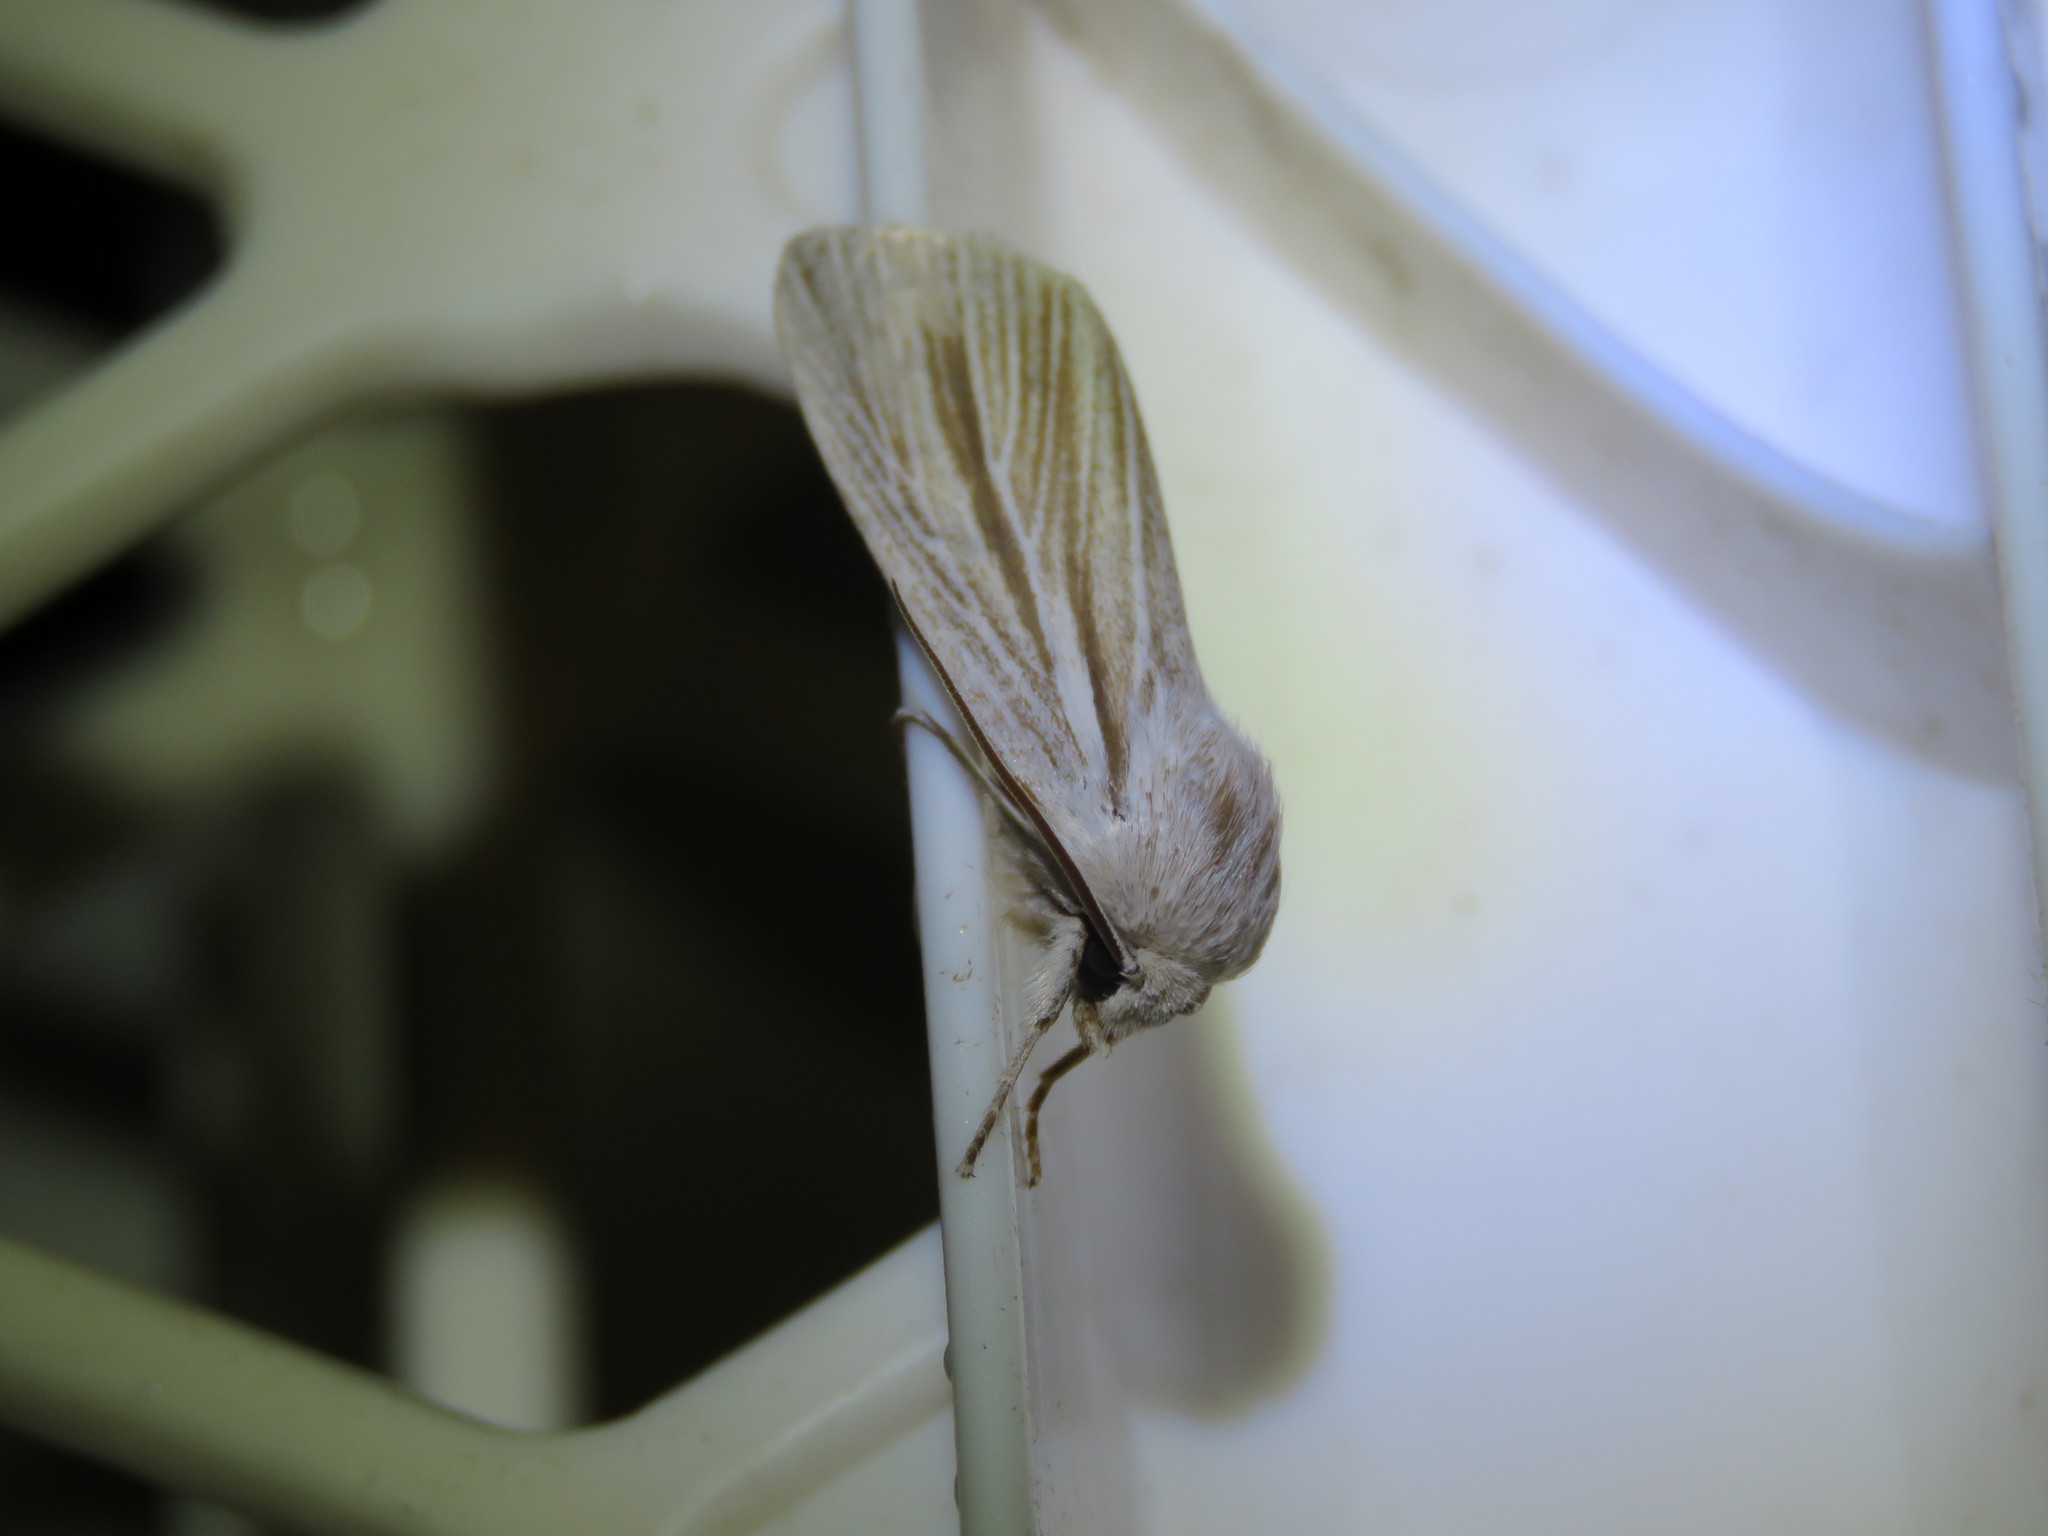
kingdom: Animalia
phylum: Arthropoda
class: Insecta
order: Lepidoptera
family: Noctuidae
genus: Acronicta
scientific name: Acronicta insularis
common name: Henry's marsh moth
